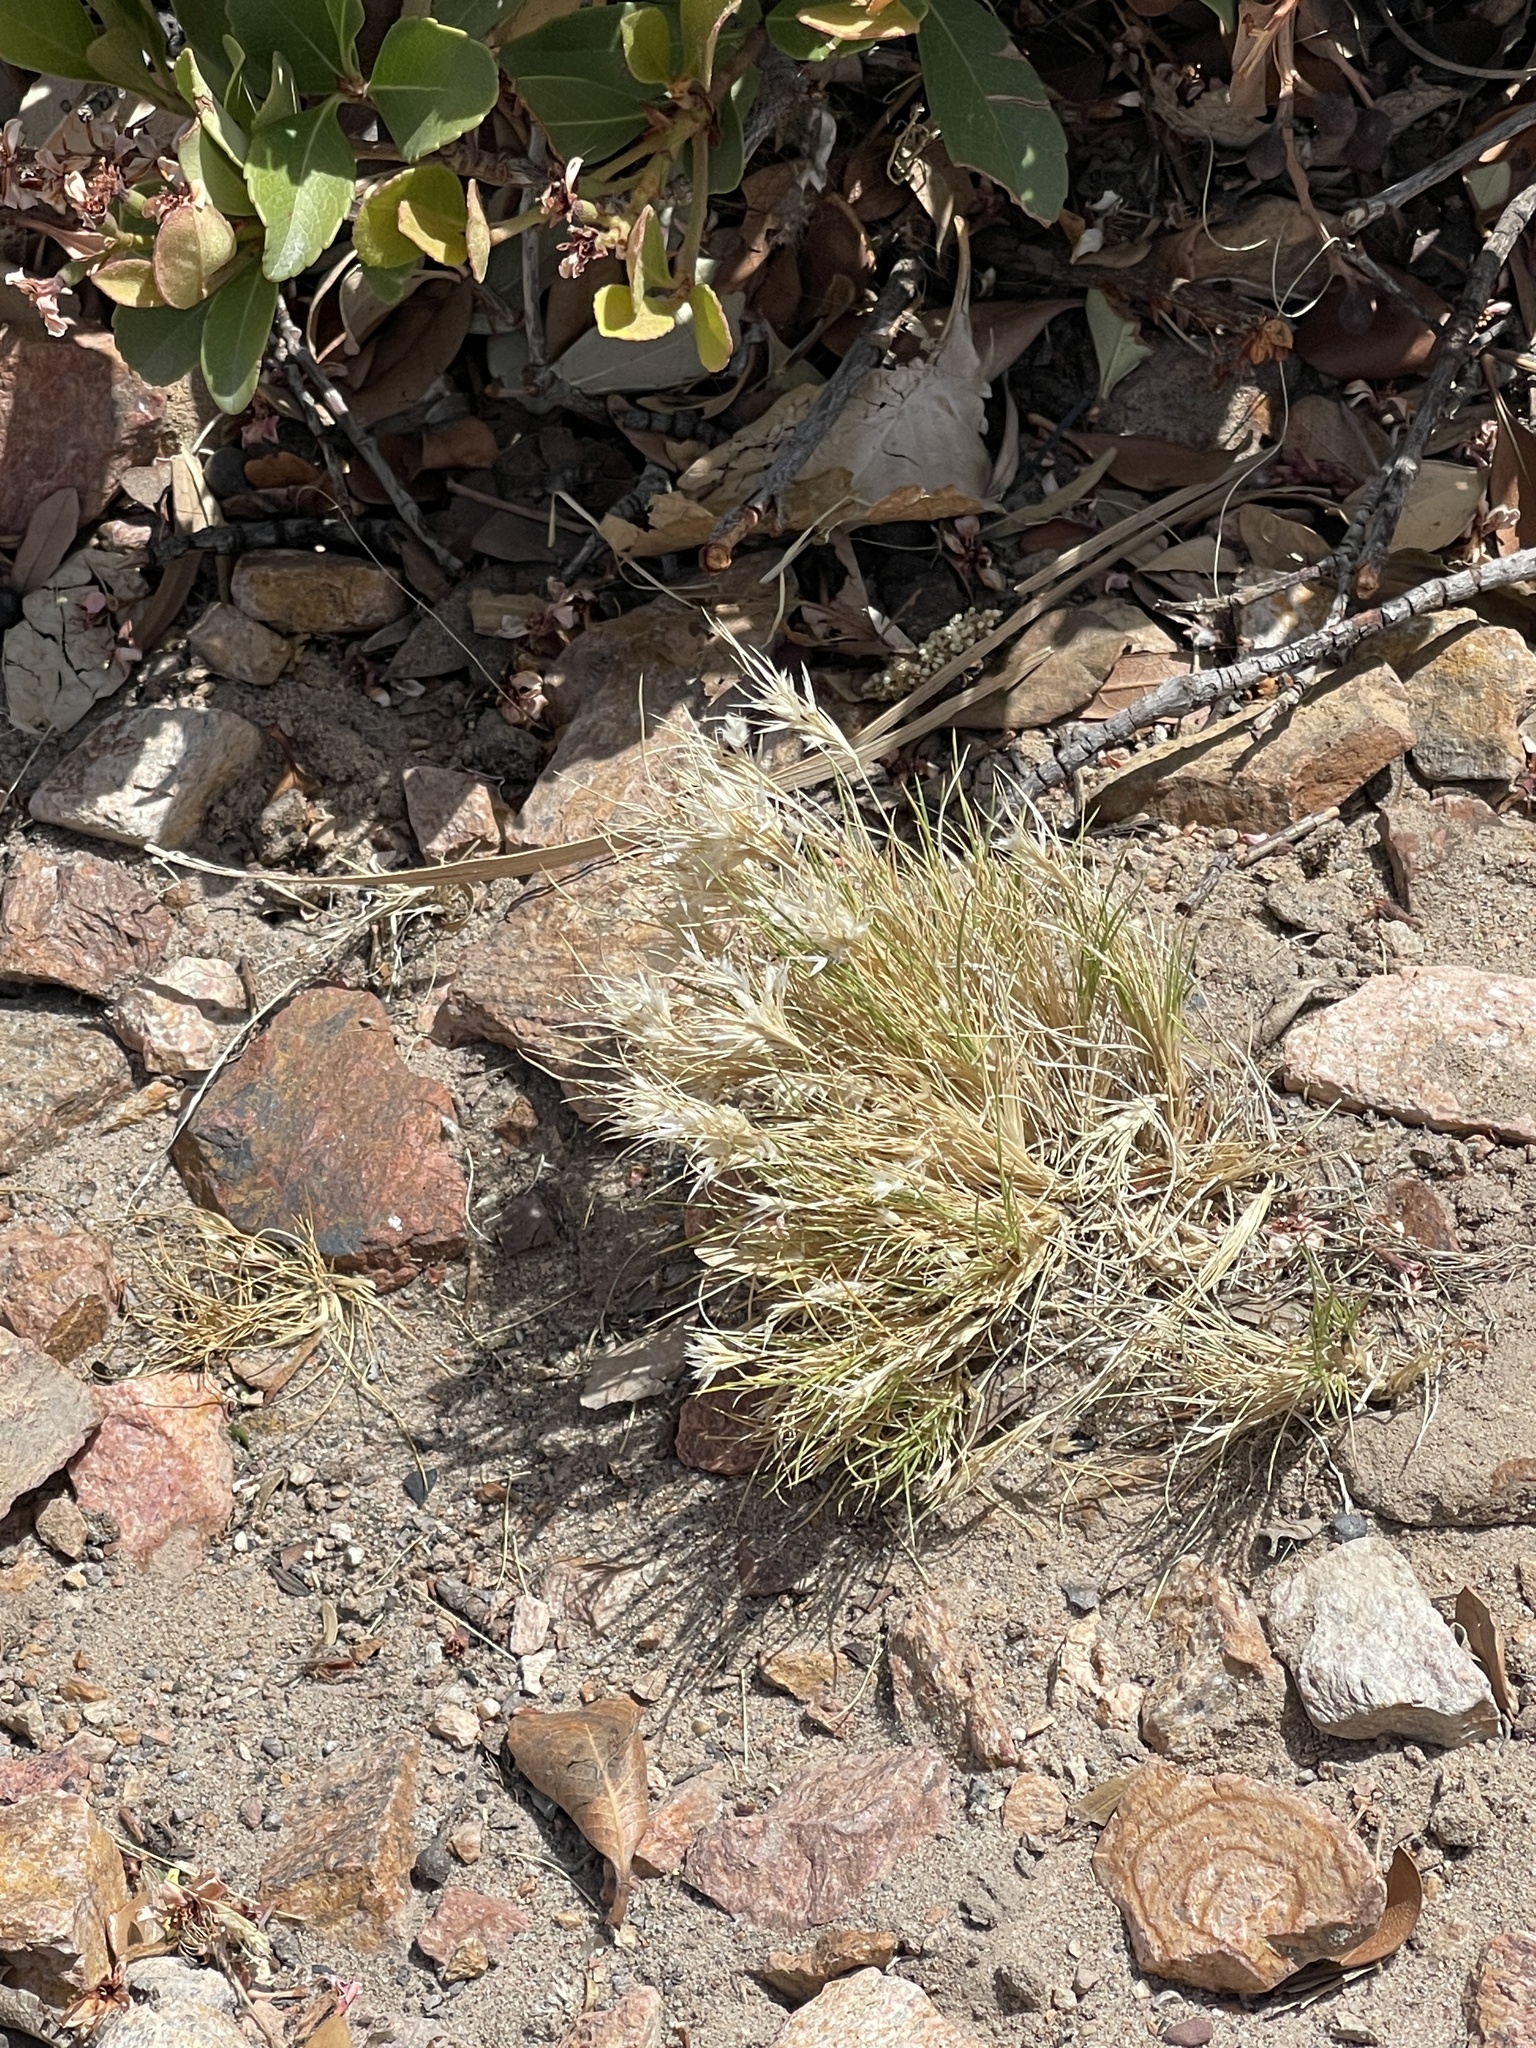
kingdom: Plantae
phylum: Tracheophyta
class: Liliopsida
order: Poales
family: Poaceae
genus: Dasyochloa
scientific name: Dasyochloa pulchella
